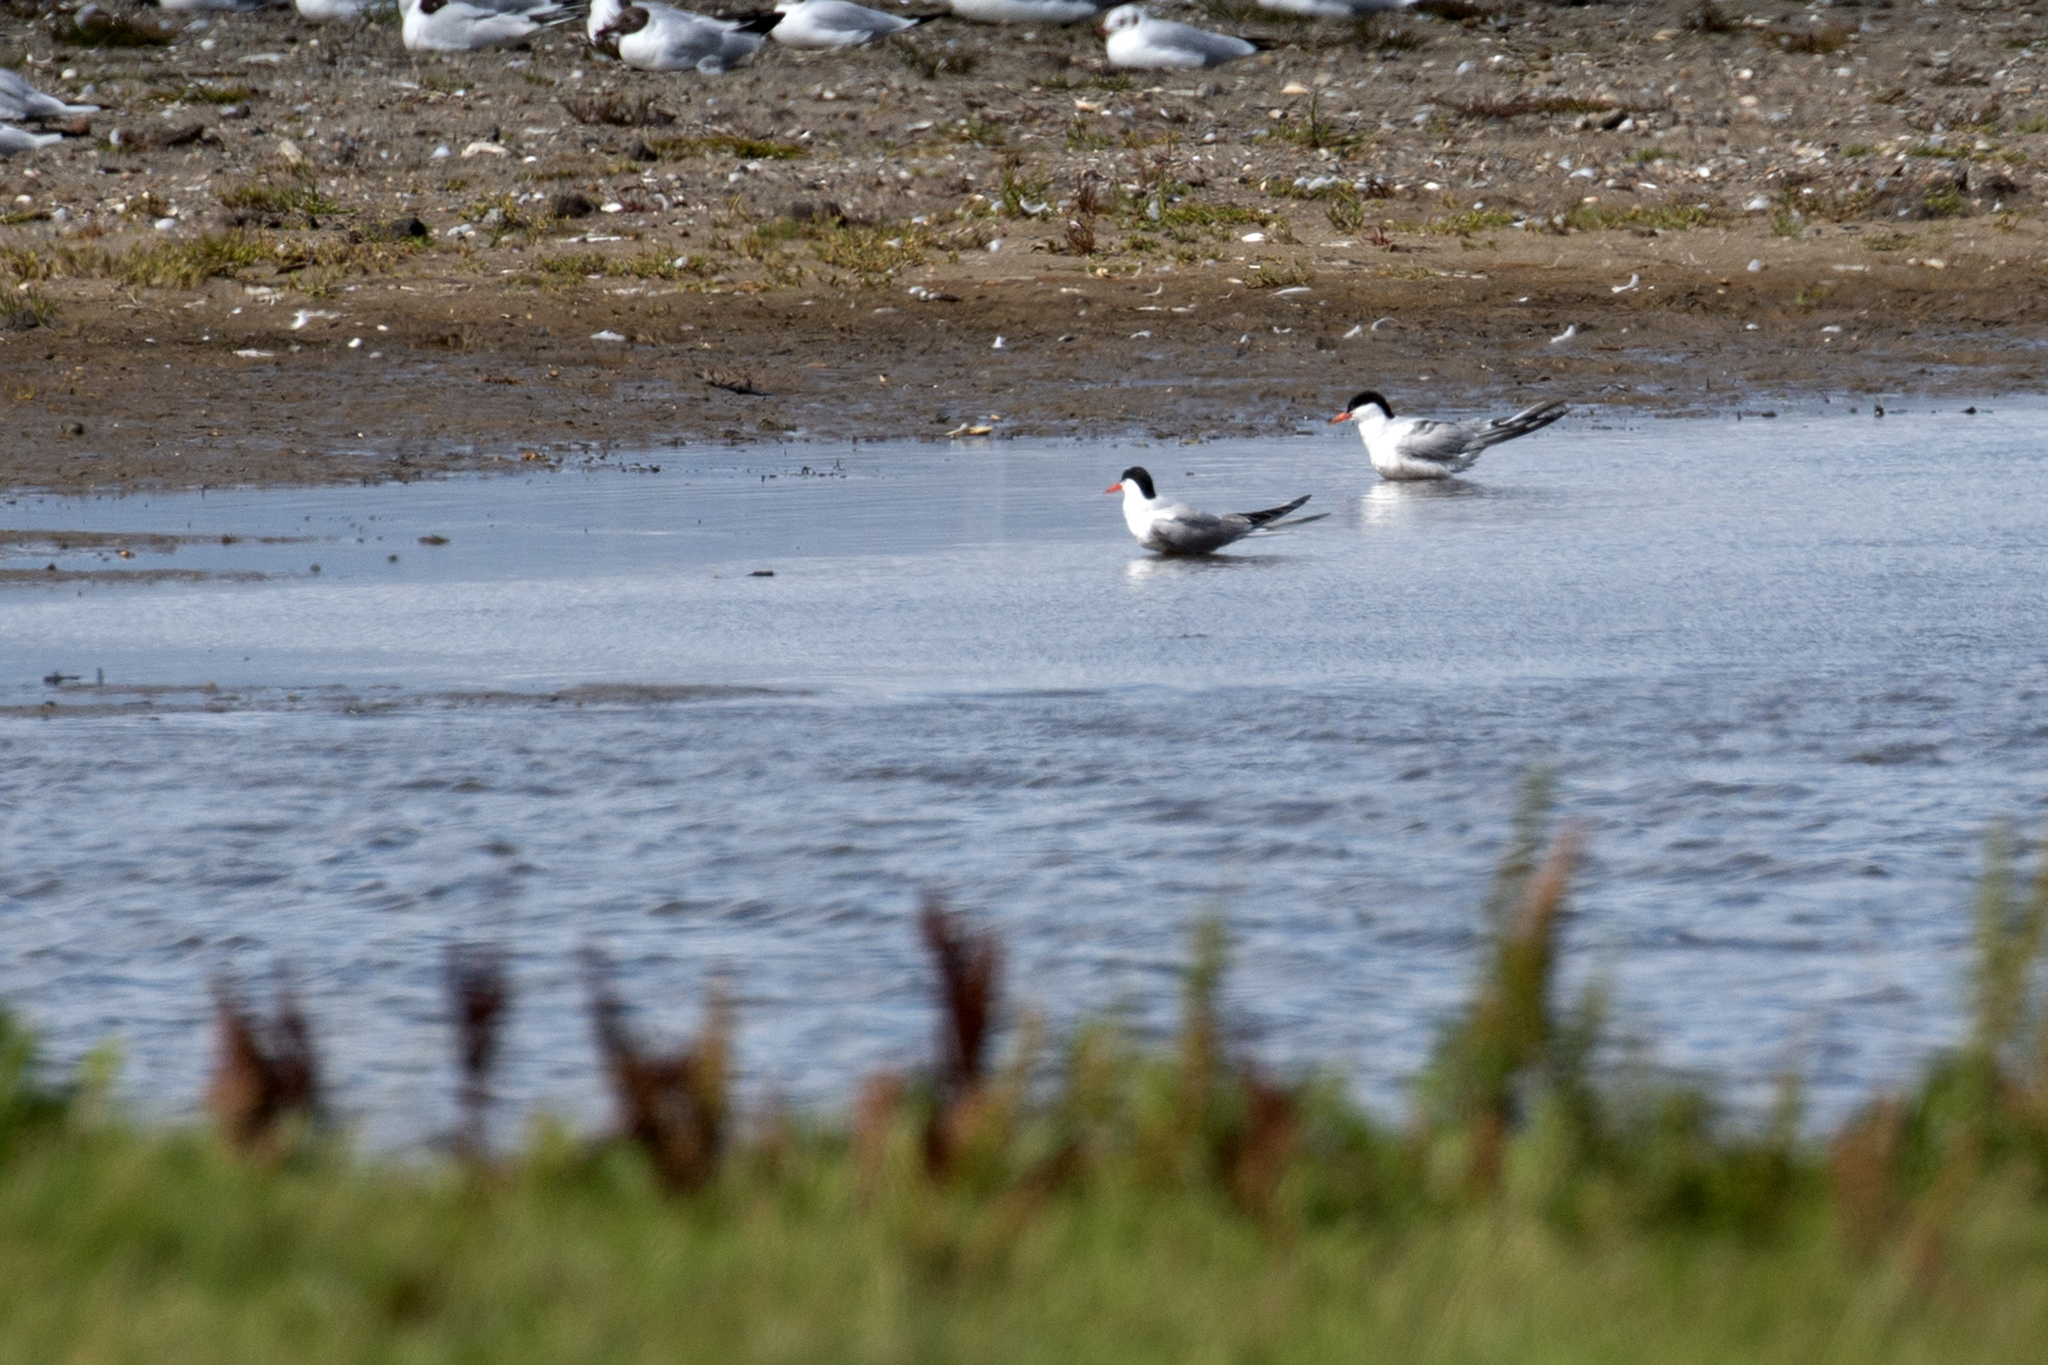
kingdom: Animalia
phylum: Chordata
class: Aves
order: Charadriiformes
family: Laridae
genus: Sterna
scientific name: Sterna hirundo
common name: Common tern
